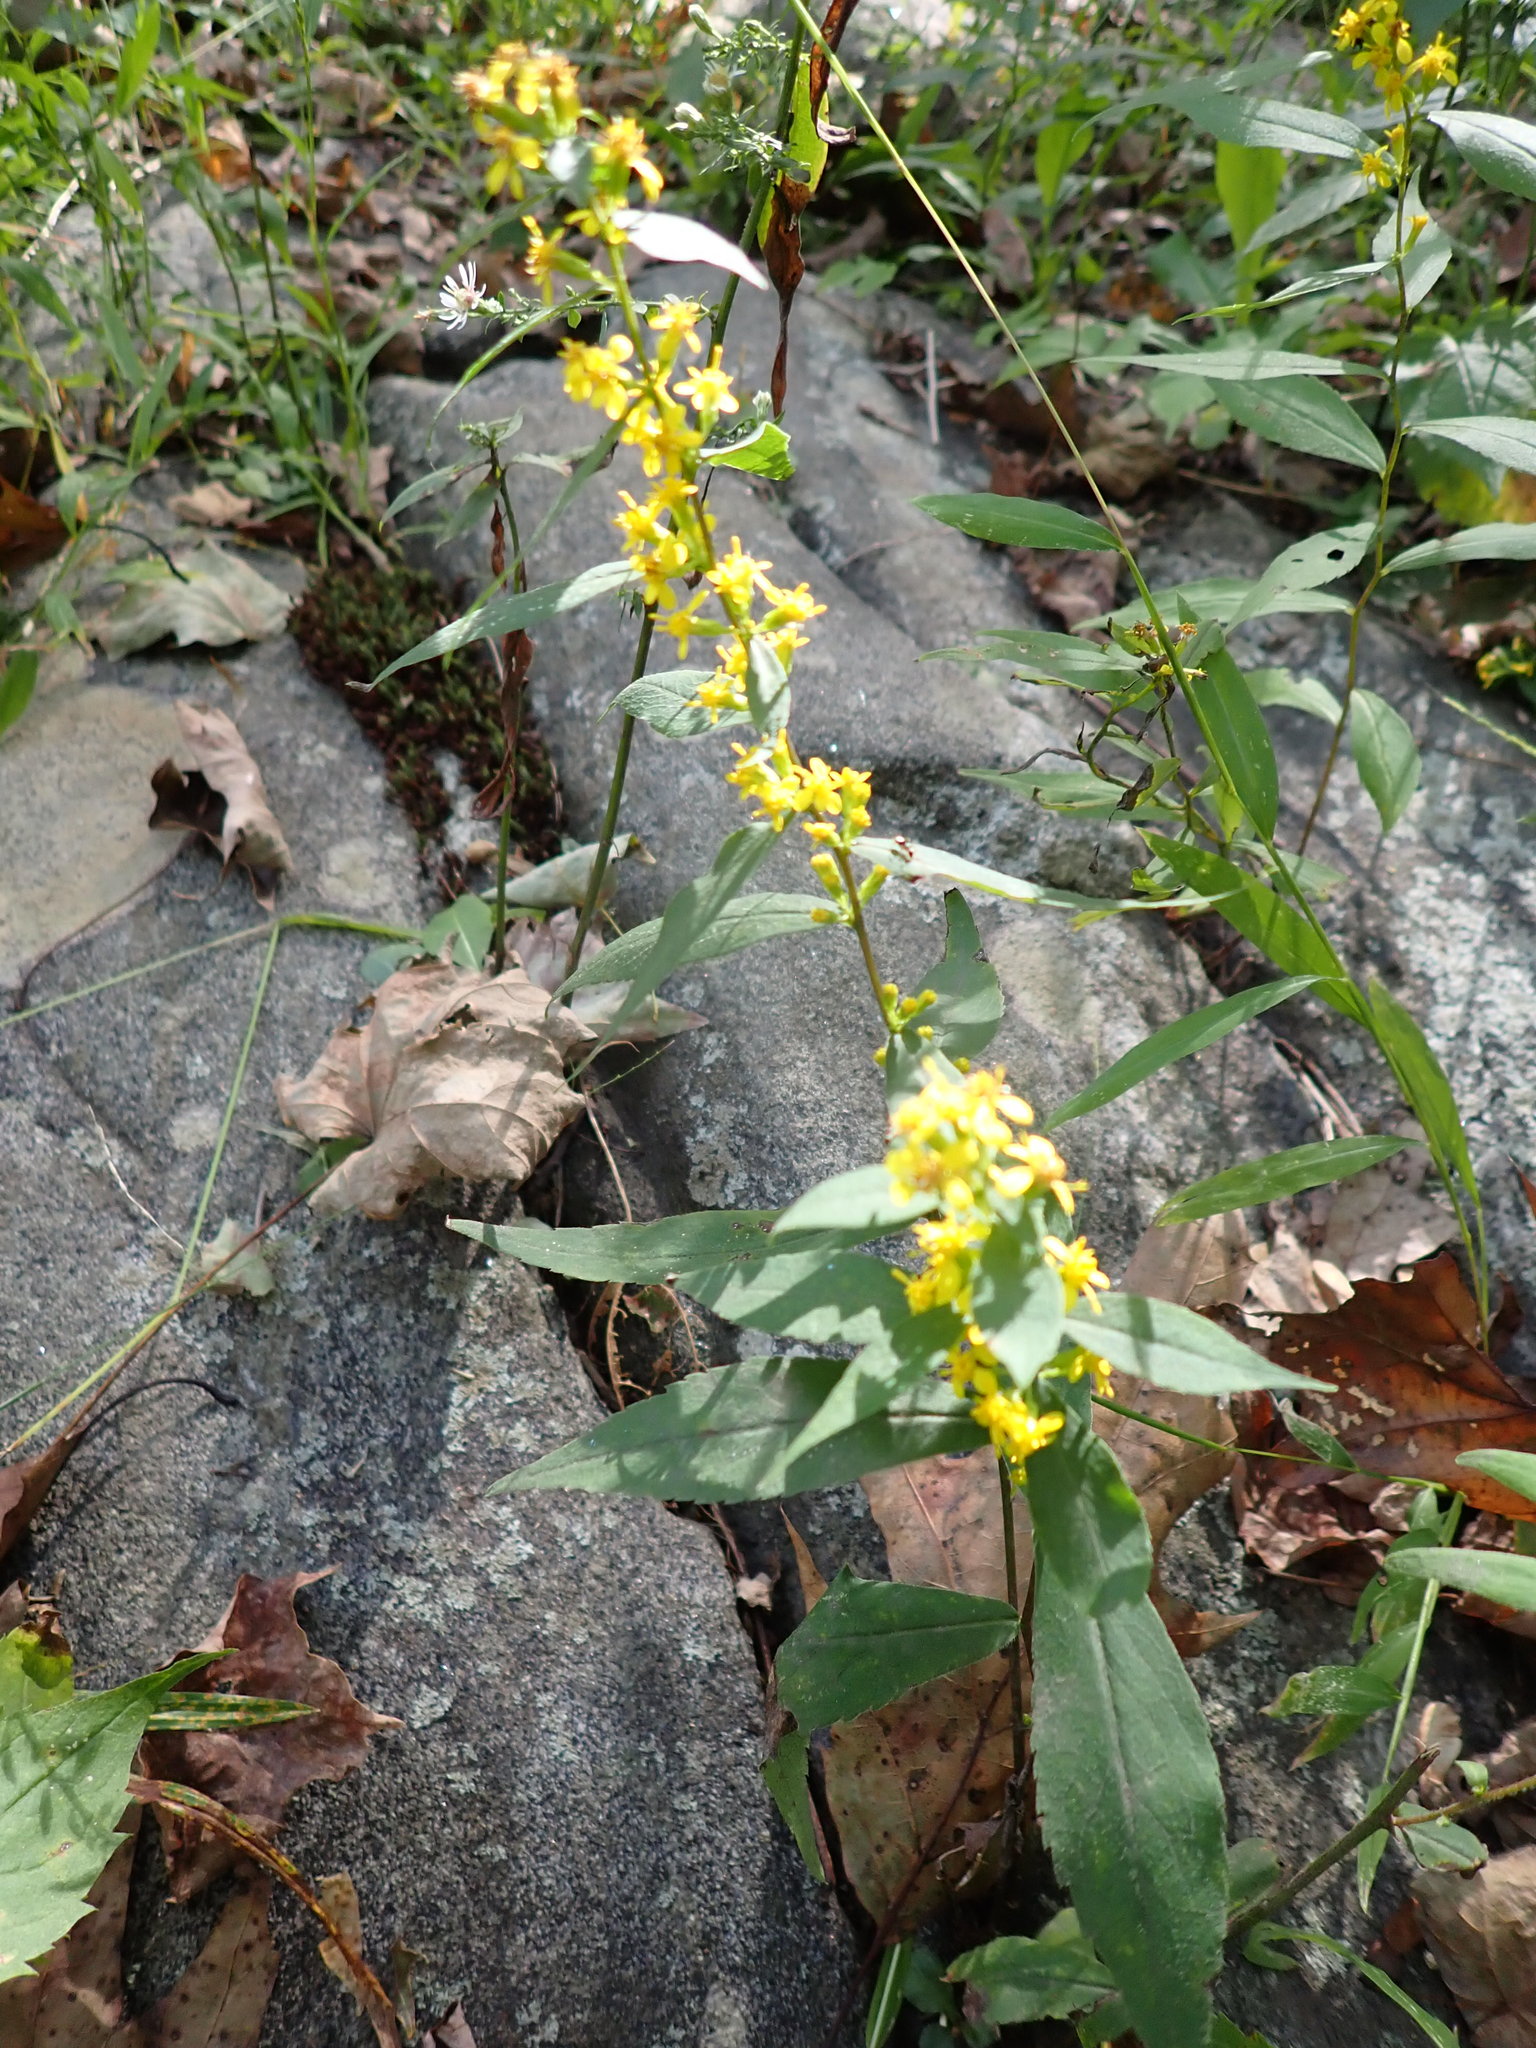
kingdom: Plantae
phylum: Tracheophyta
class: Magnoliopsida
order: Asterales
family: Asteraceae
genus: Solidago
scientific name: Solidago caesia
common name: Woodland goldenrod
